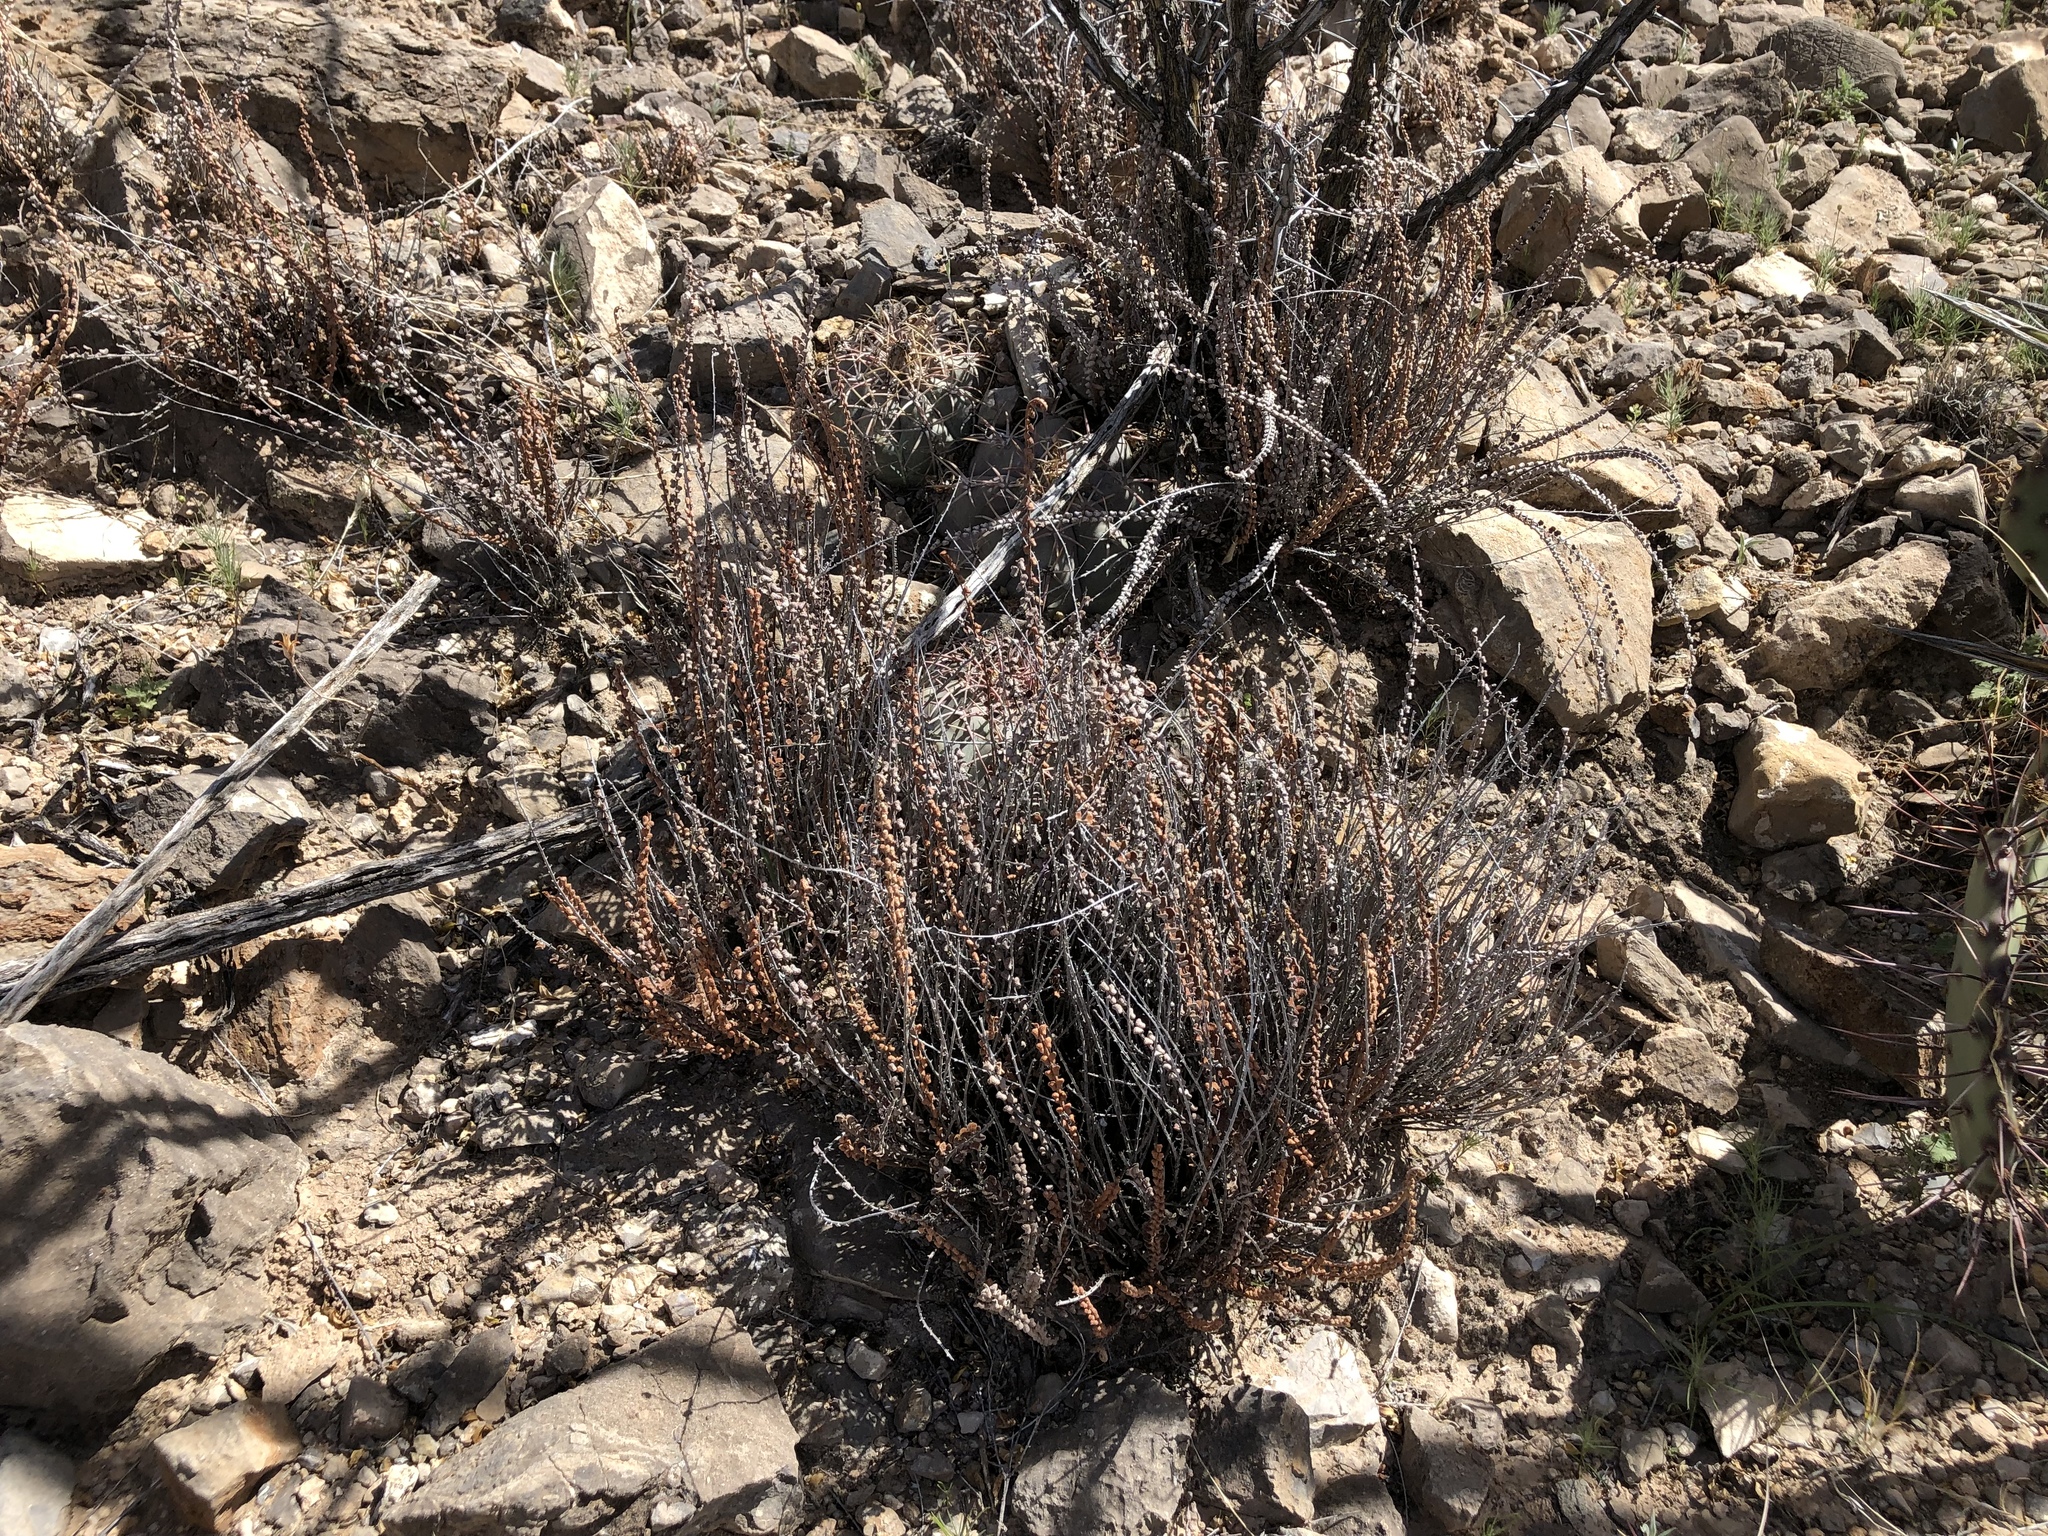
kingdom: Plantae
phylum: Tracheophyta
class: Polypodiopsida
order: Polypodiales
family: Pteridaceae
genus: Astrolepis
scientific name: Astrolepis cochisensis
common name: Scaly cloak fern
